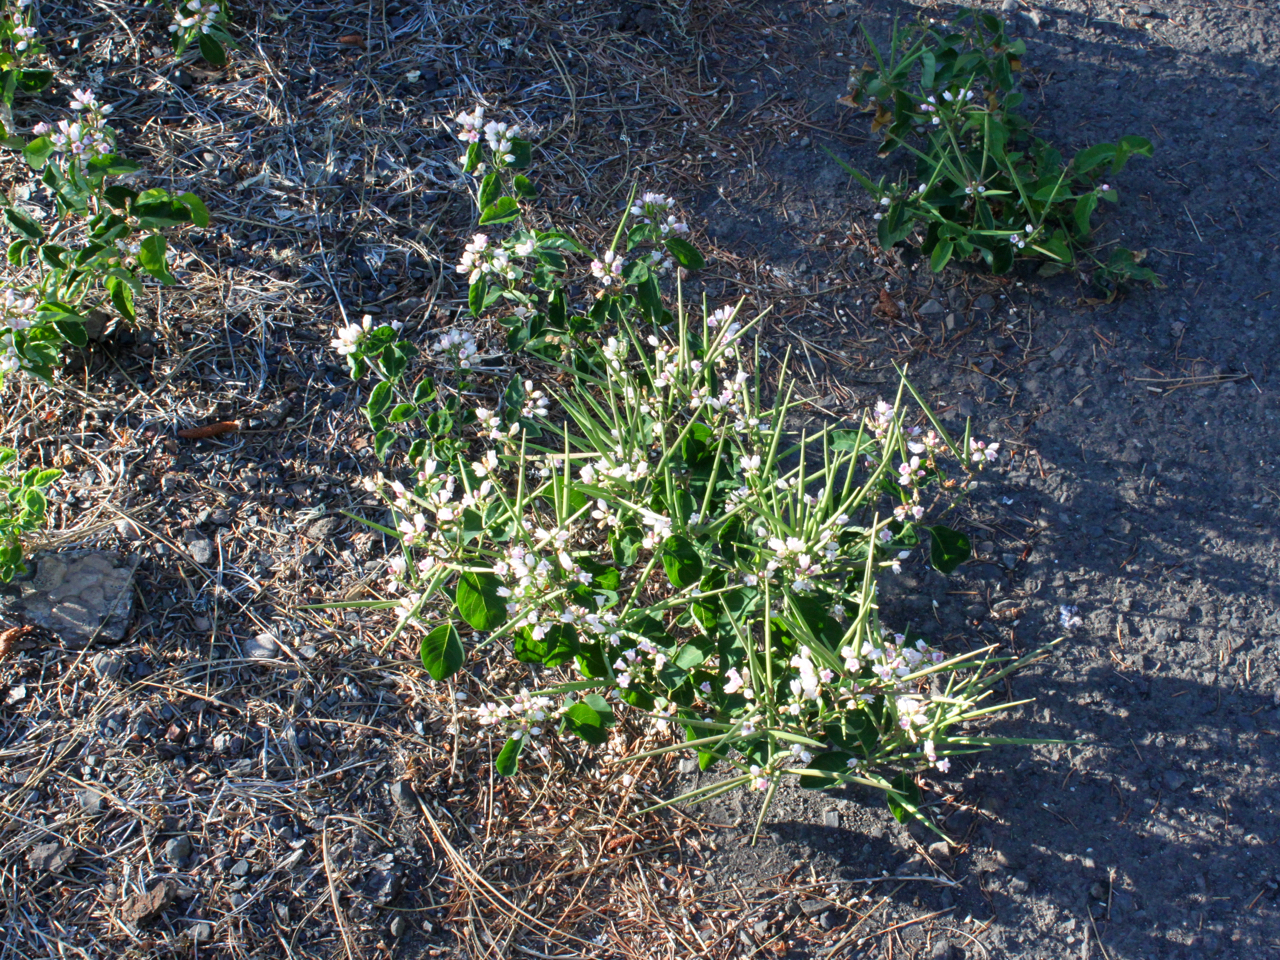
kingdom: Plantae
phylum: Tracheophyta
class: Magnoliopsida
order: Gentianales
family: Apocynaceae
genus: Apocynum
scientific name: Apocynum androsaemifolium
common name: Spreading dogbane
